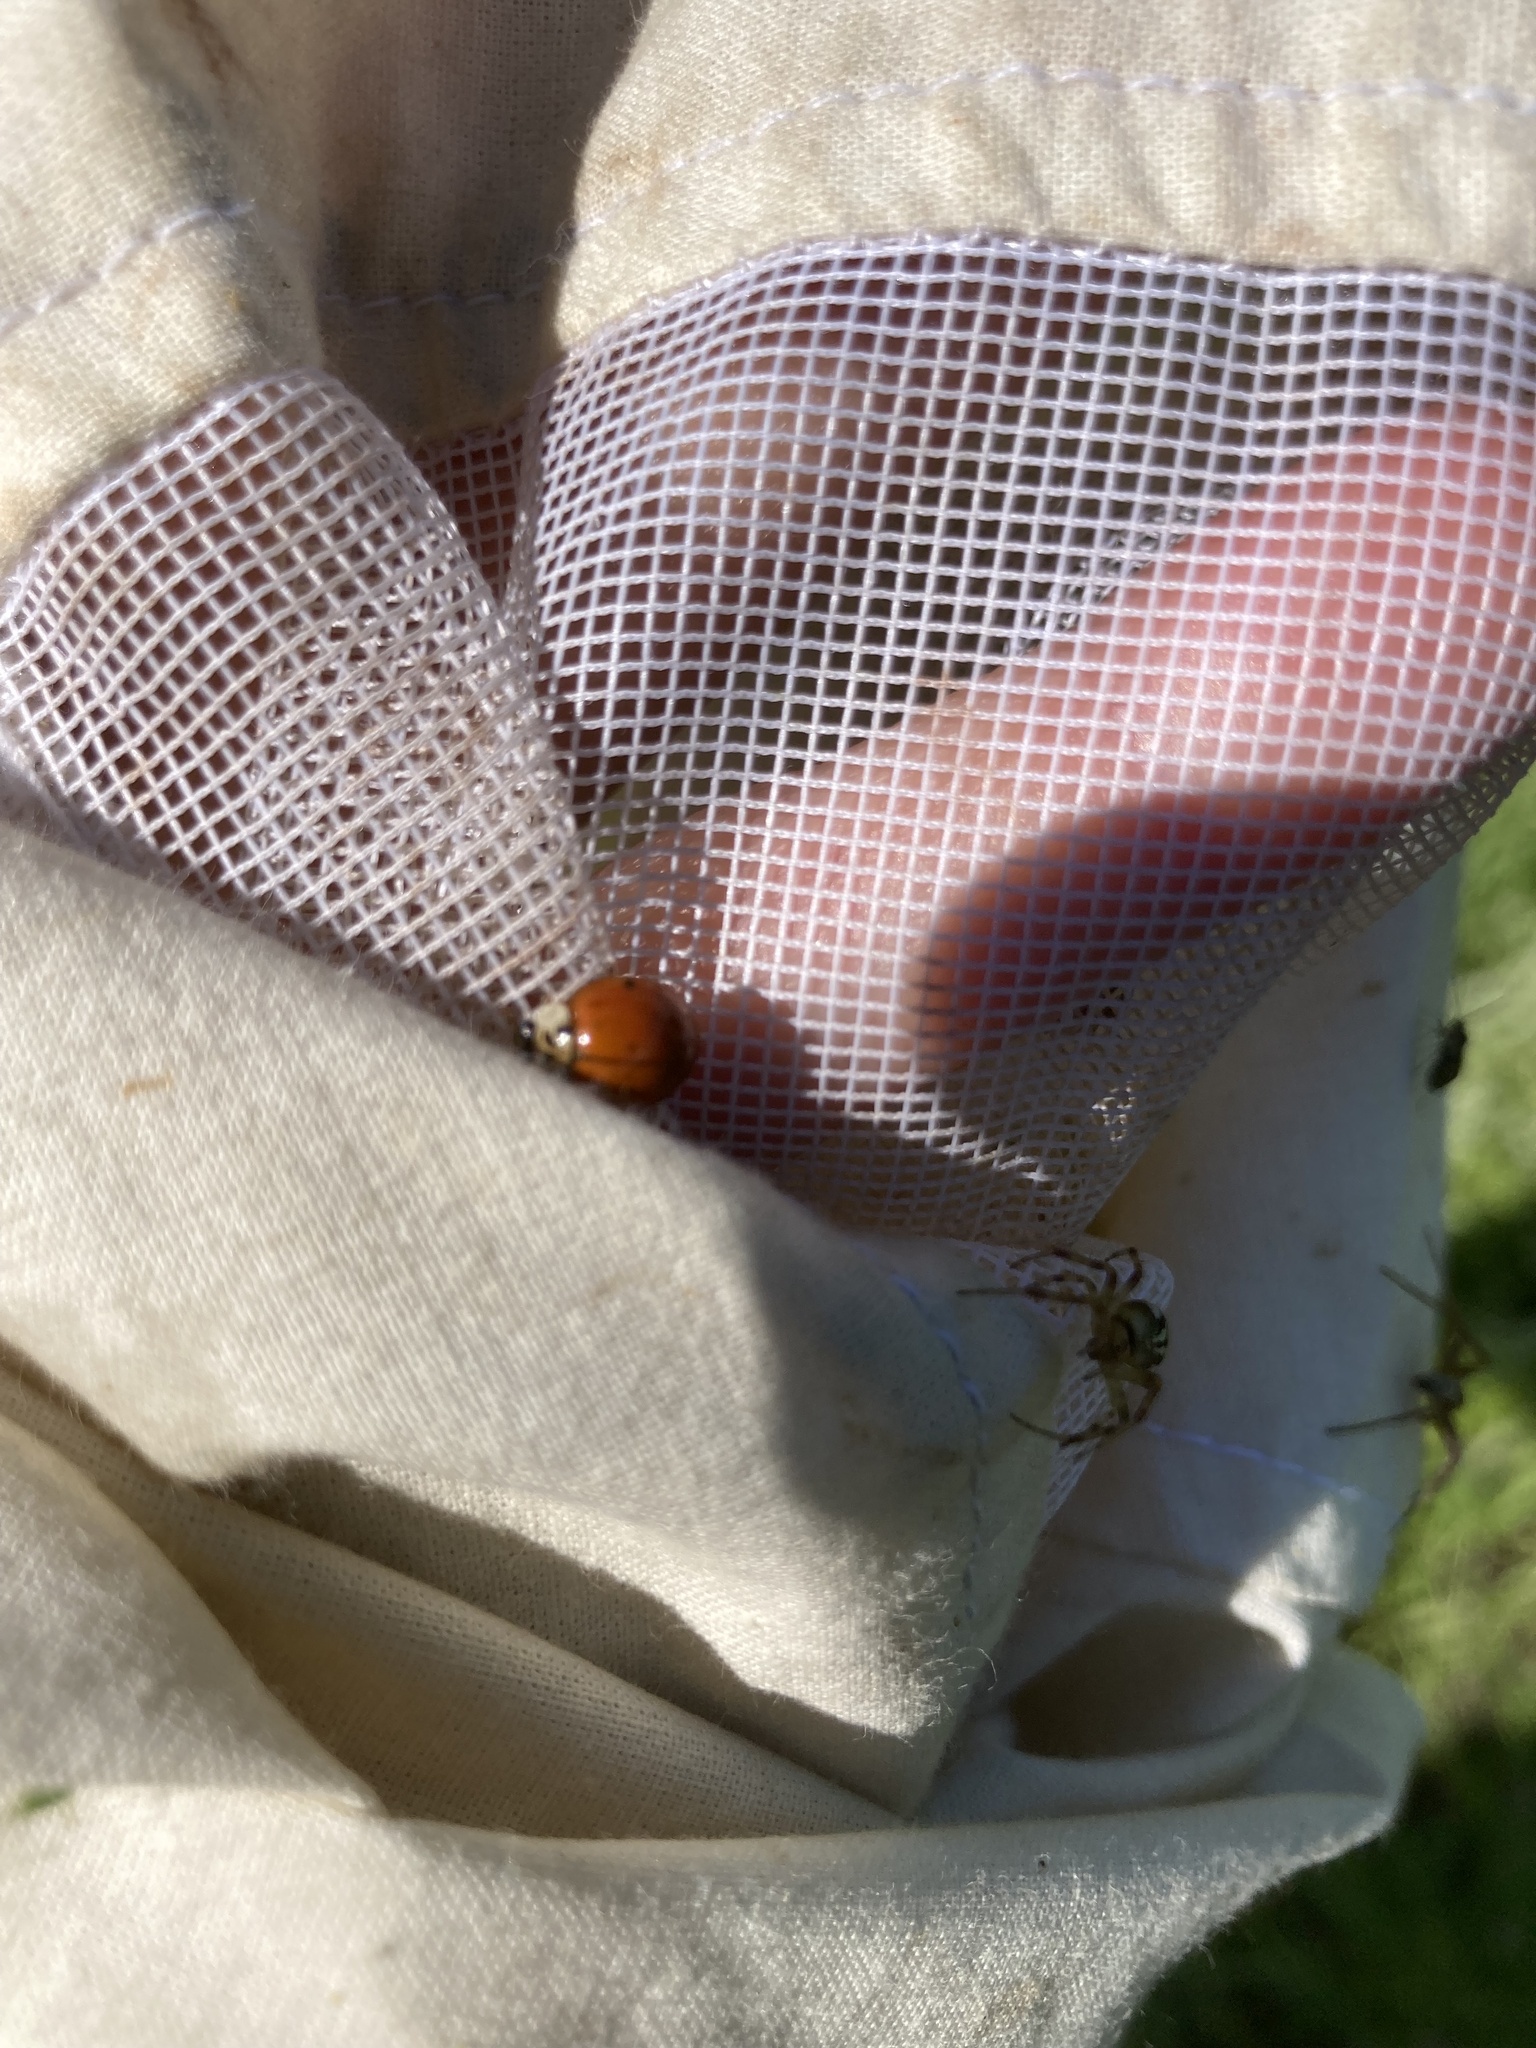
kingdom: Animalia
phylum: Arthropoda
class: Insecta
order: Coleoptera
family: Coccinellidae
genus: Harmonia
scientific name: Harmonia axyridis
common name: Harlequin ladybird
